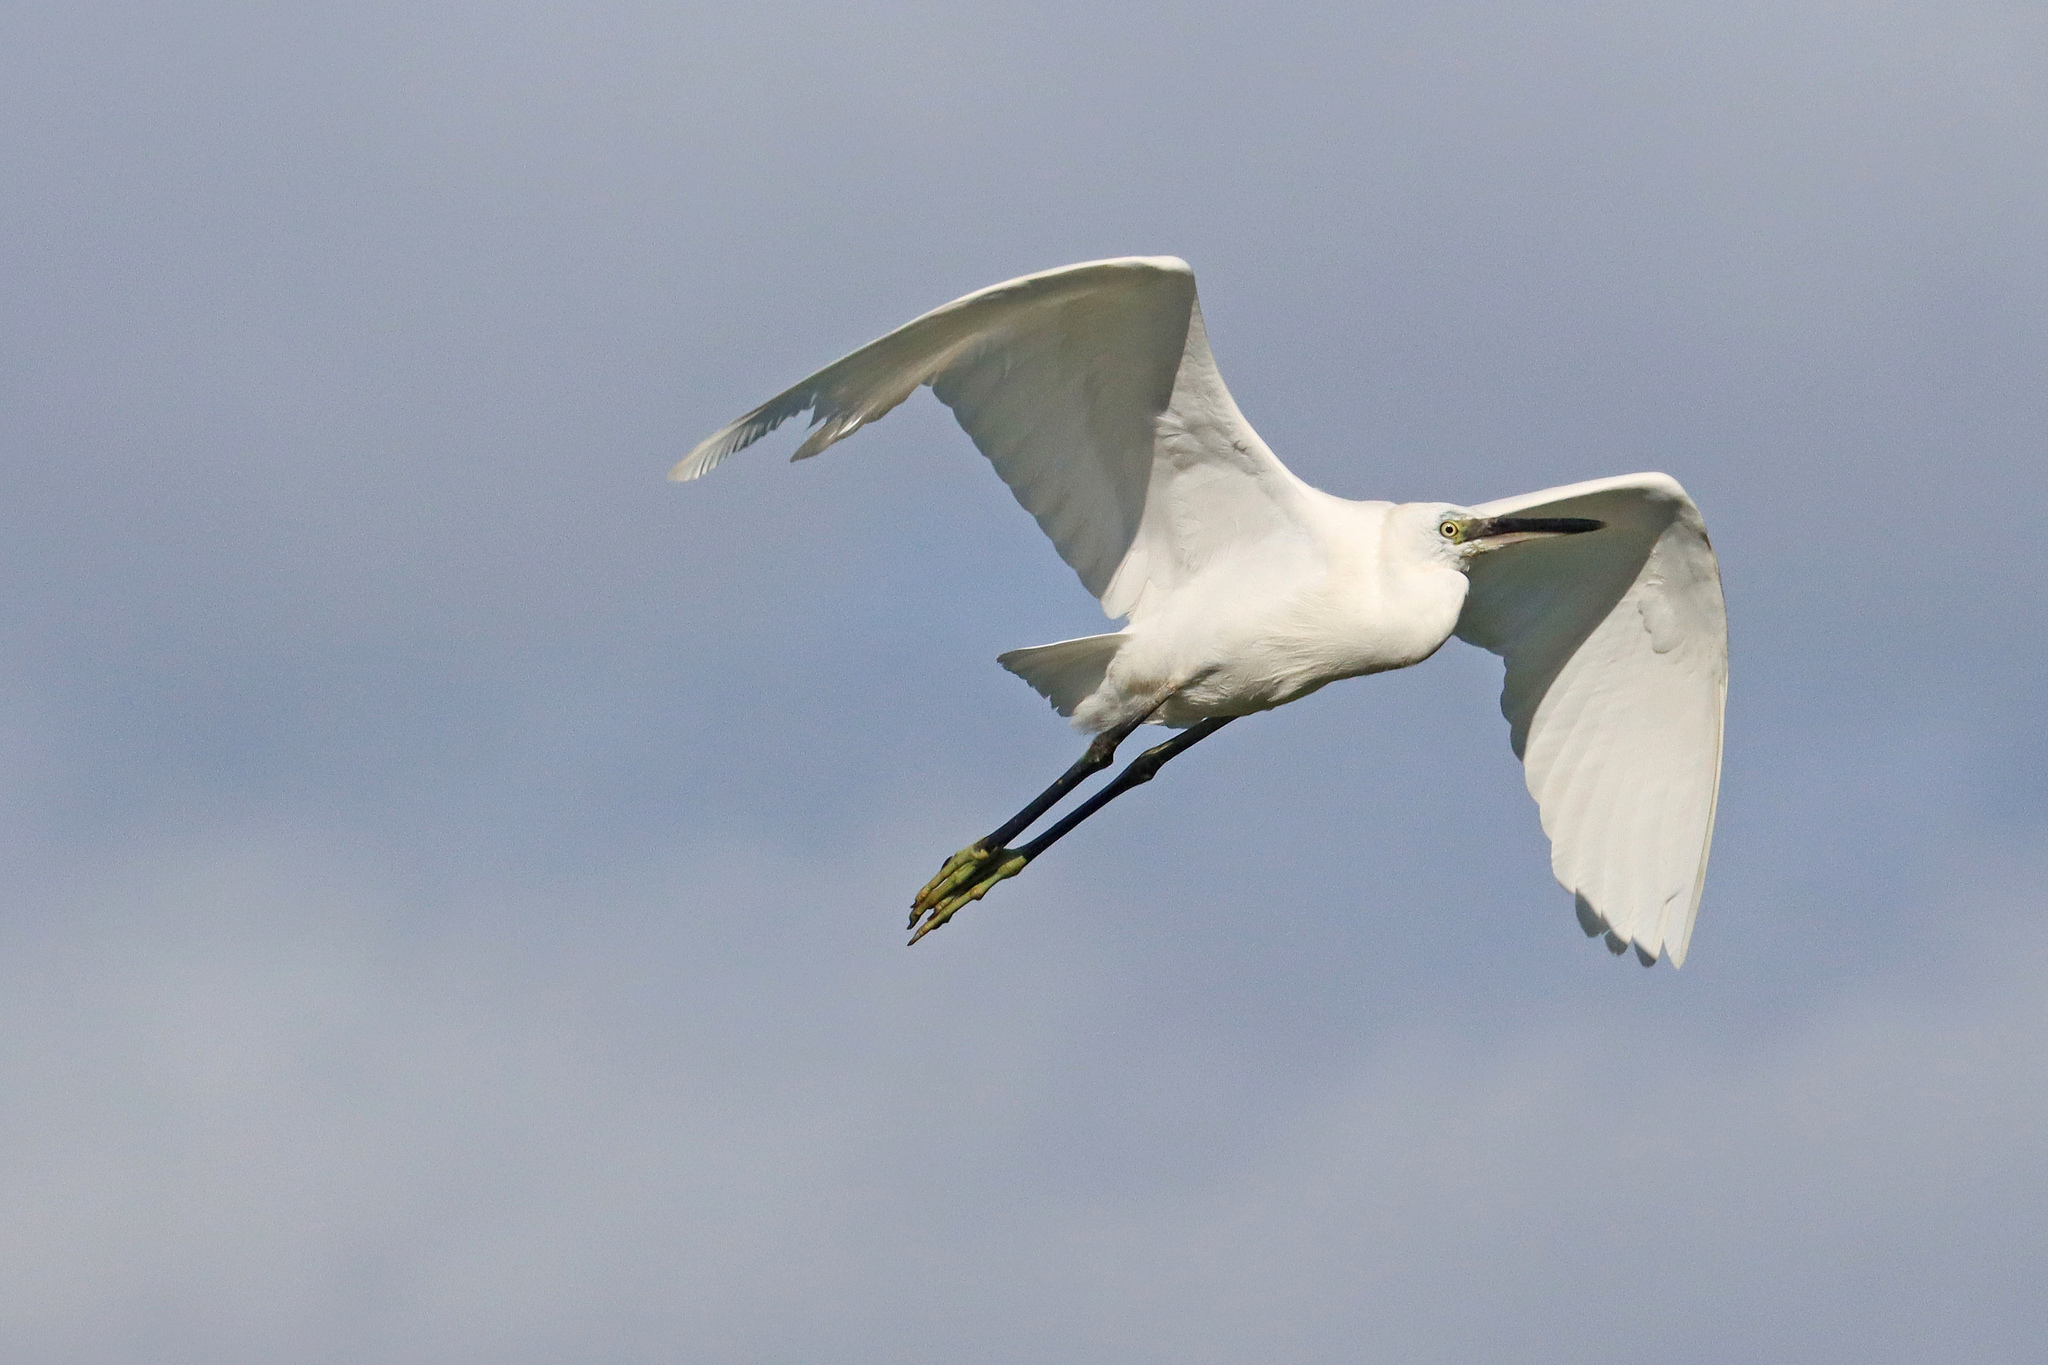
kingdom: Animalia
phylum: Chordata
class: Aves
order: Pelecaniformes
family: Ardeidae
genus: Egretta
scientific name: Egretta garzetta
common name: Little egret
